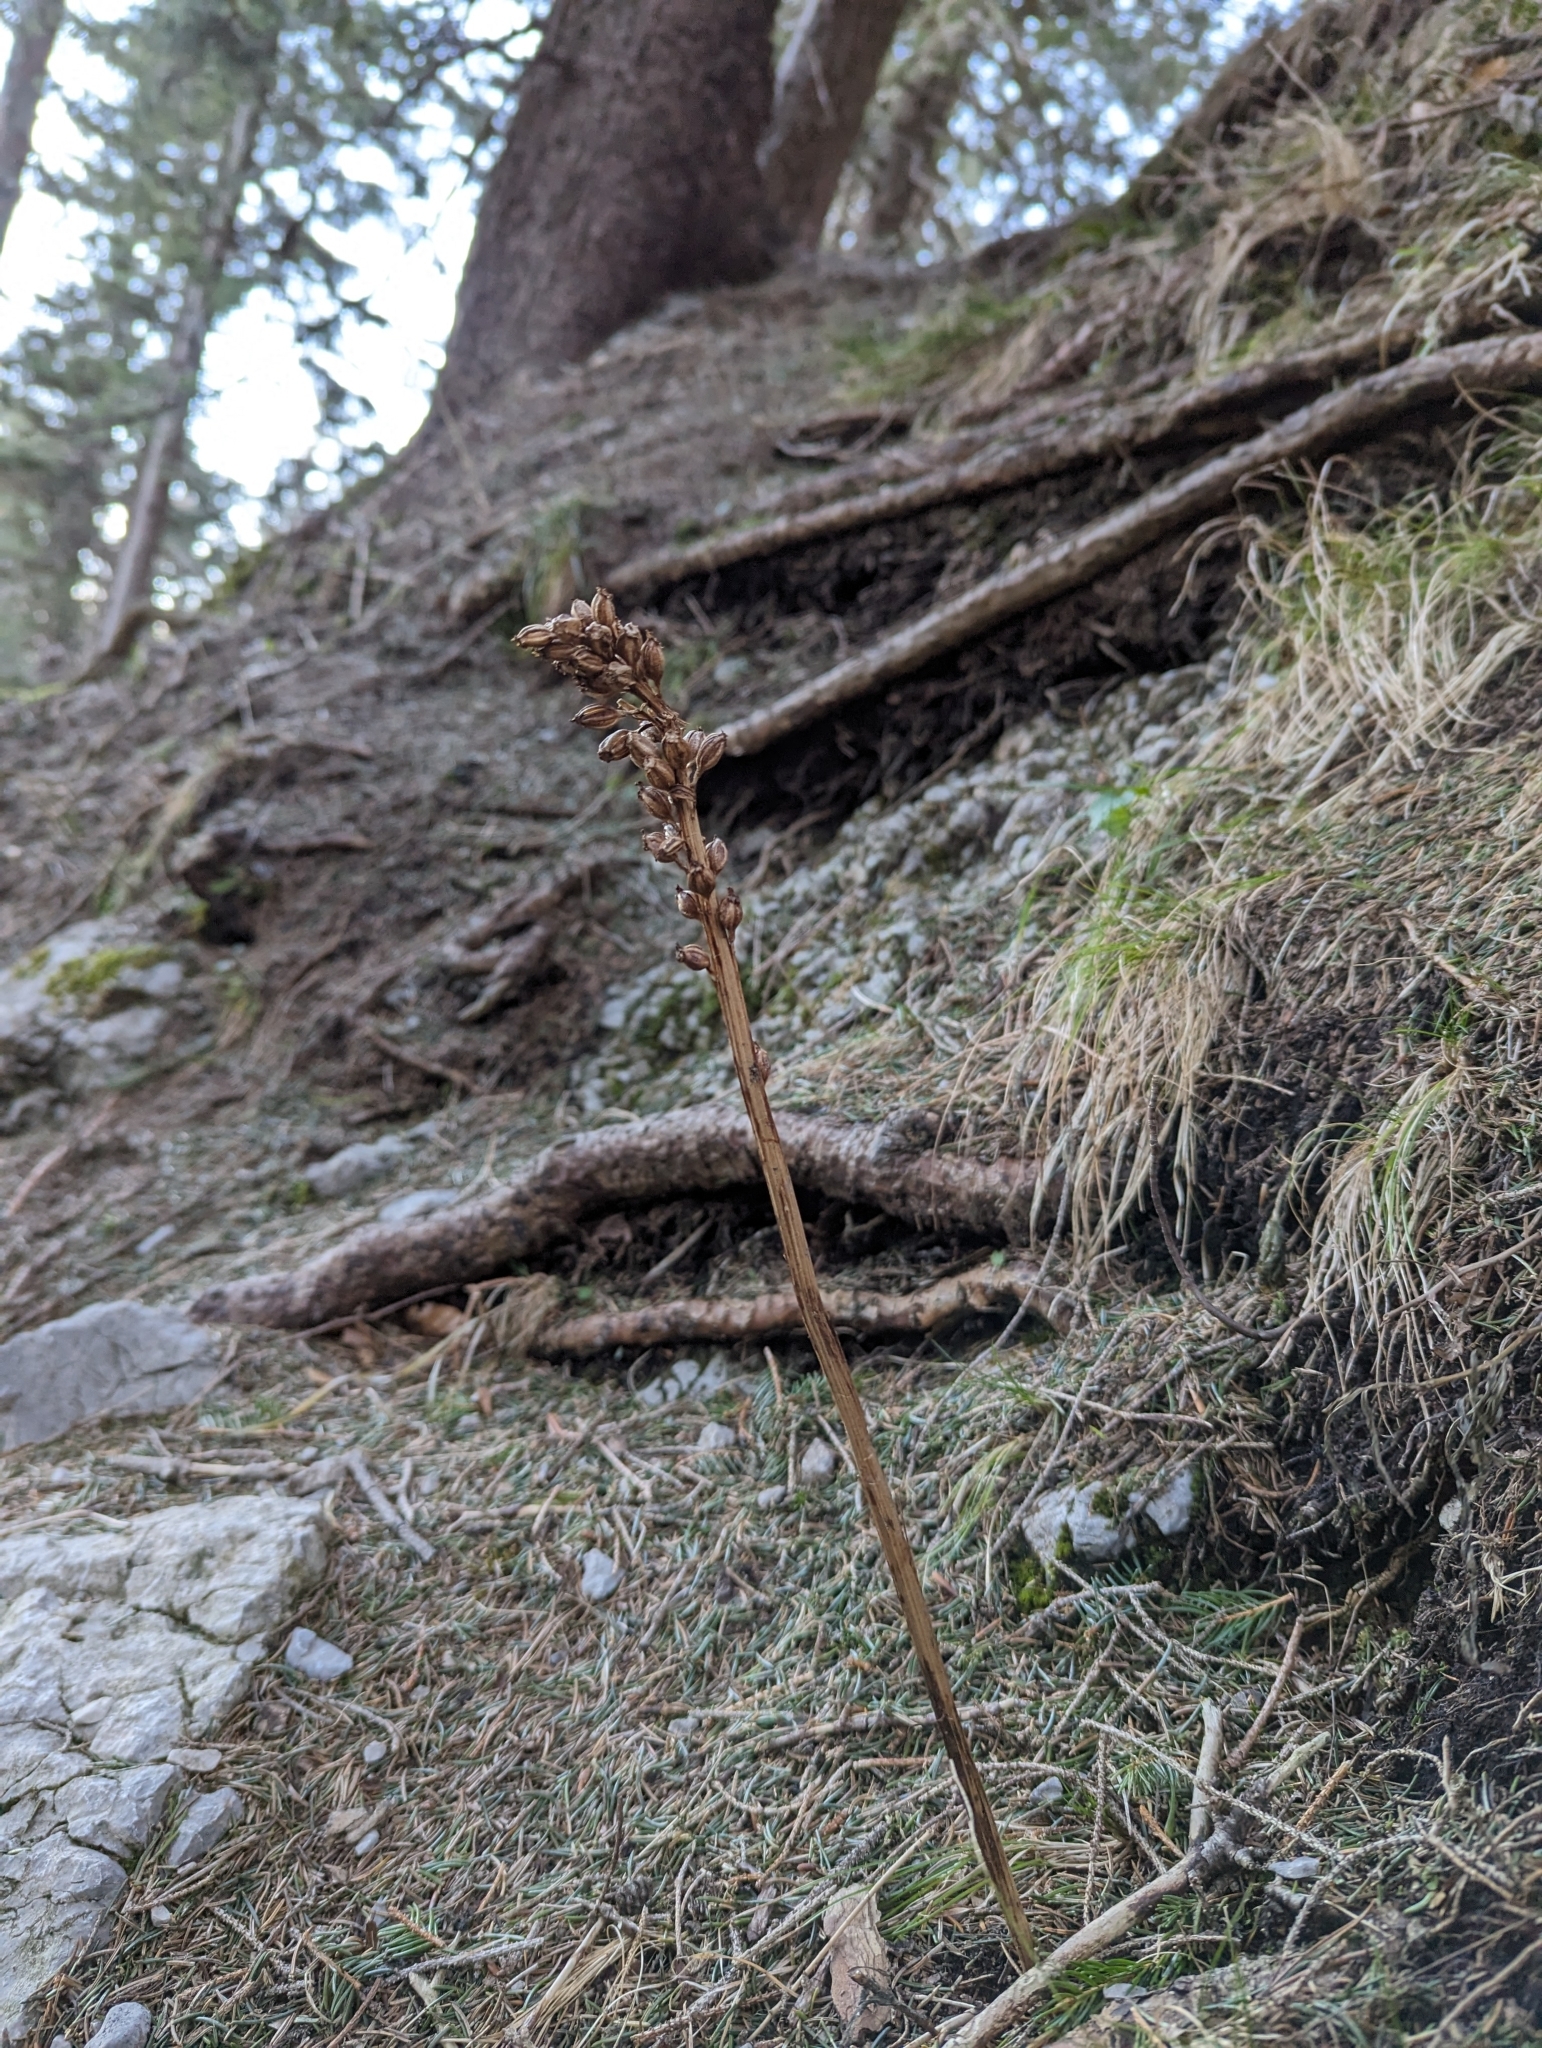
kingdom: Plantae
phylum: Tracheophyta
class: Liliopsida
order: Asparagales
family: Orchidaceae
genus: Neottia
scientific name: Neottia nidus-avis
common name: Bird's-nest orchid
